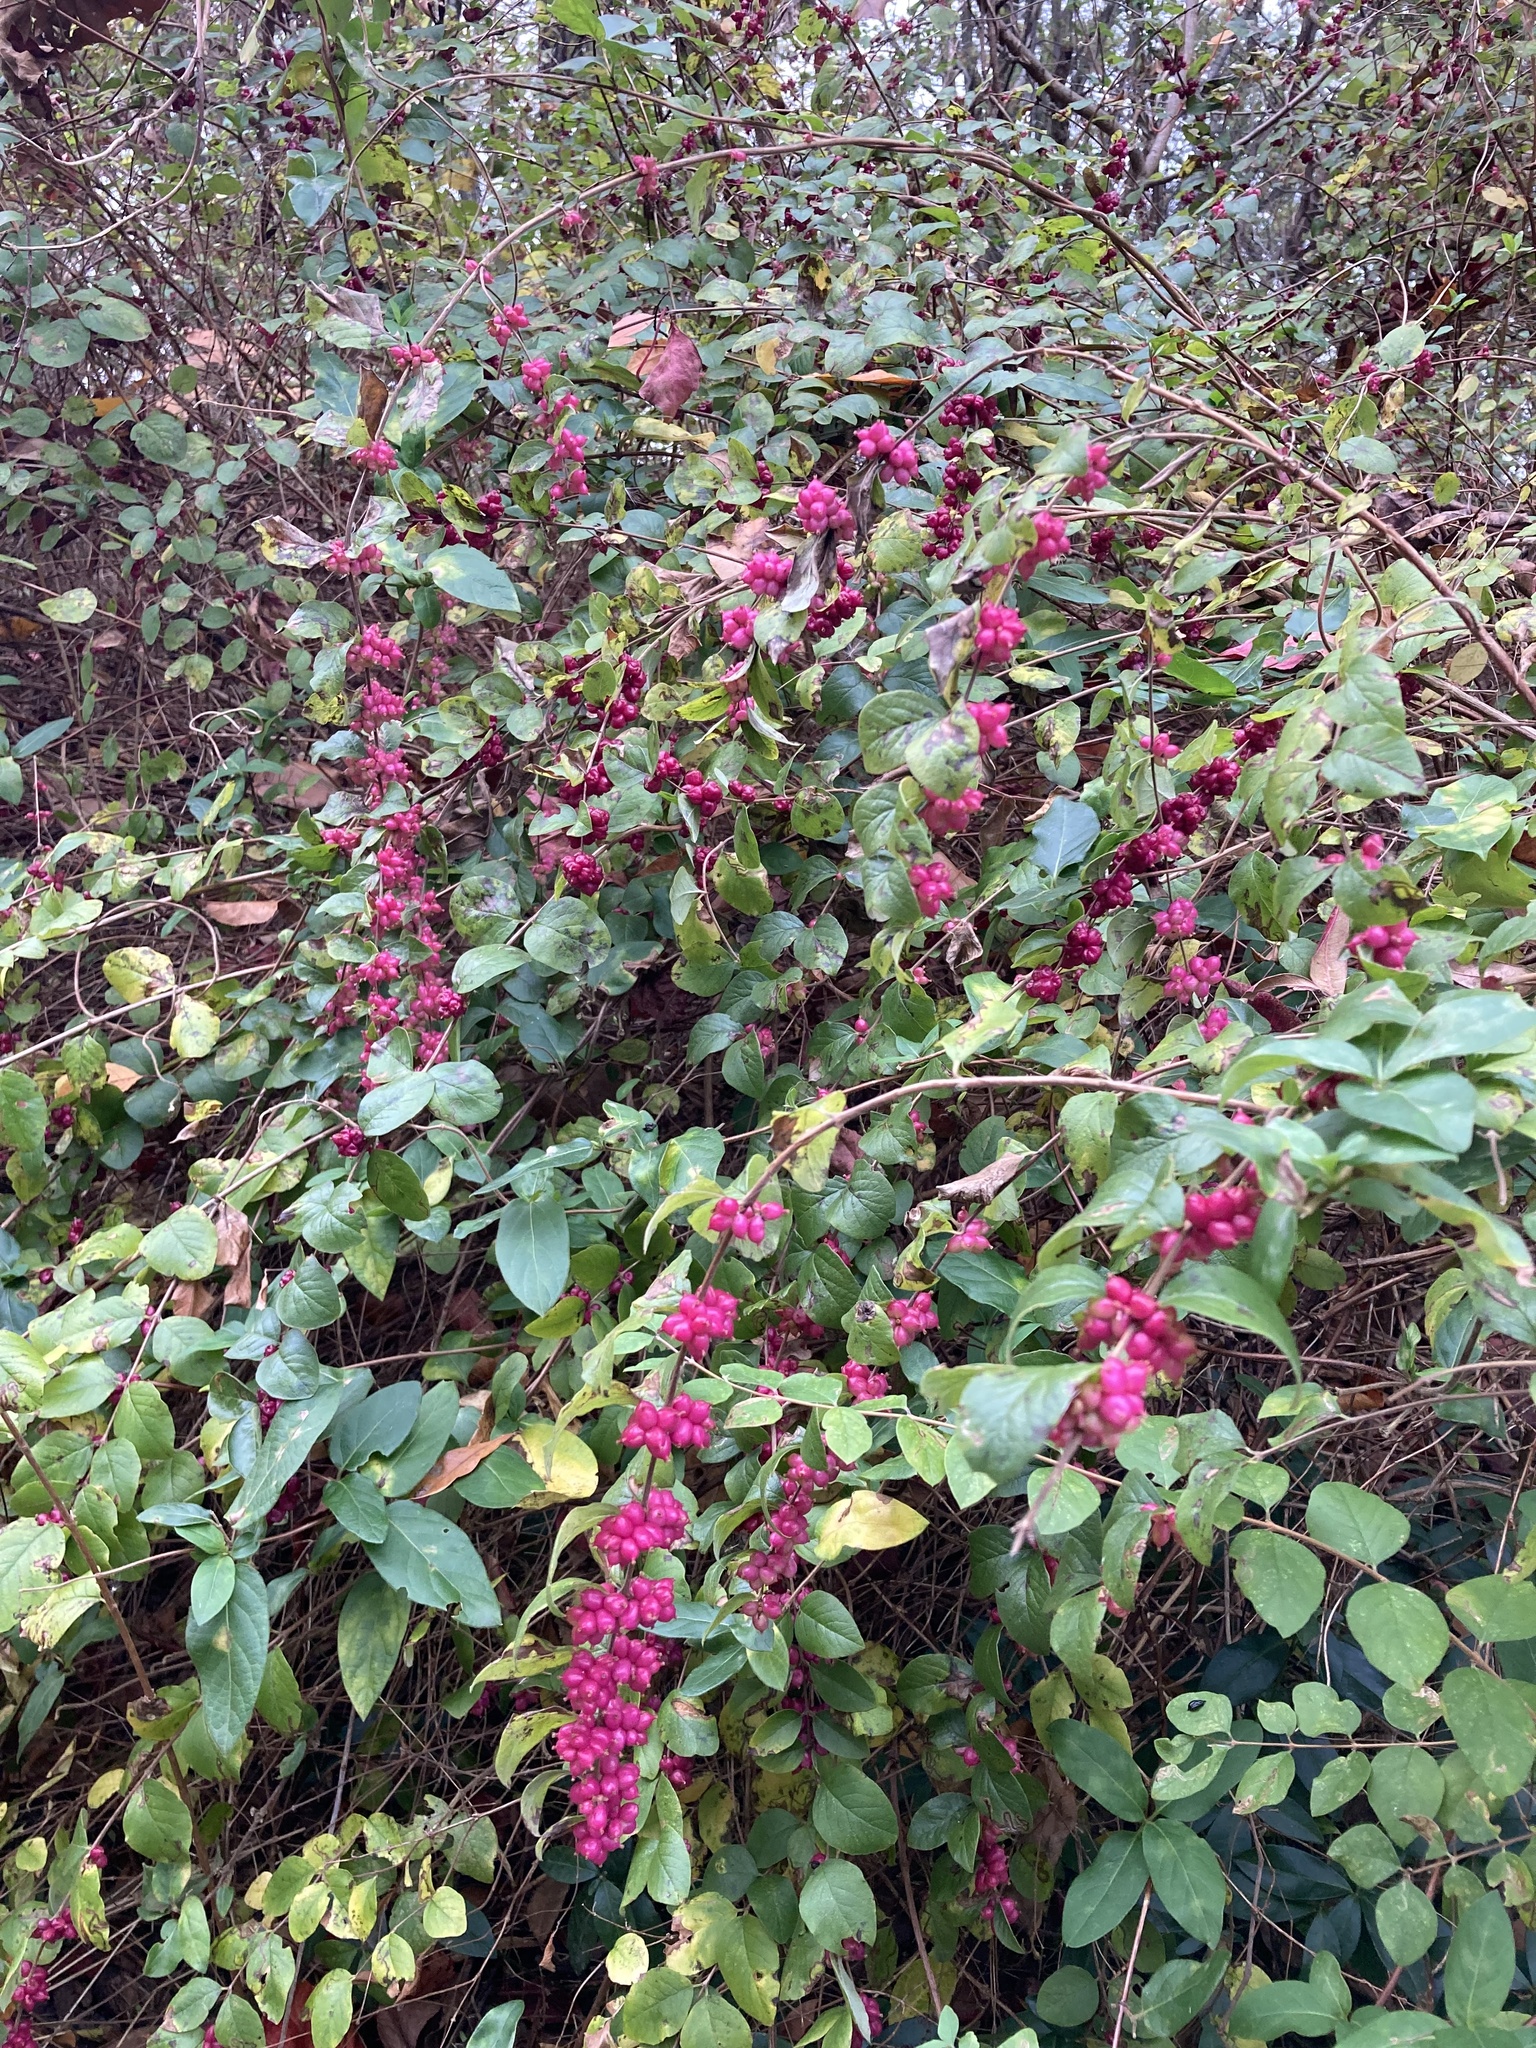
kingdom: Plantae
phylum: Tracheophyta
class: Magnoliopsida
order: Dipsacales
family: Caprifoliaceae
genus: Symphoricarpos
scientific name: Symphoricarpos orbiculatus
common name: Coralberry
